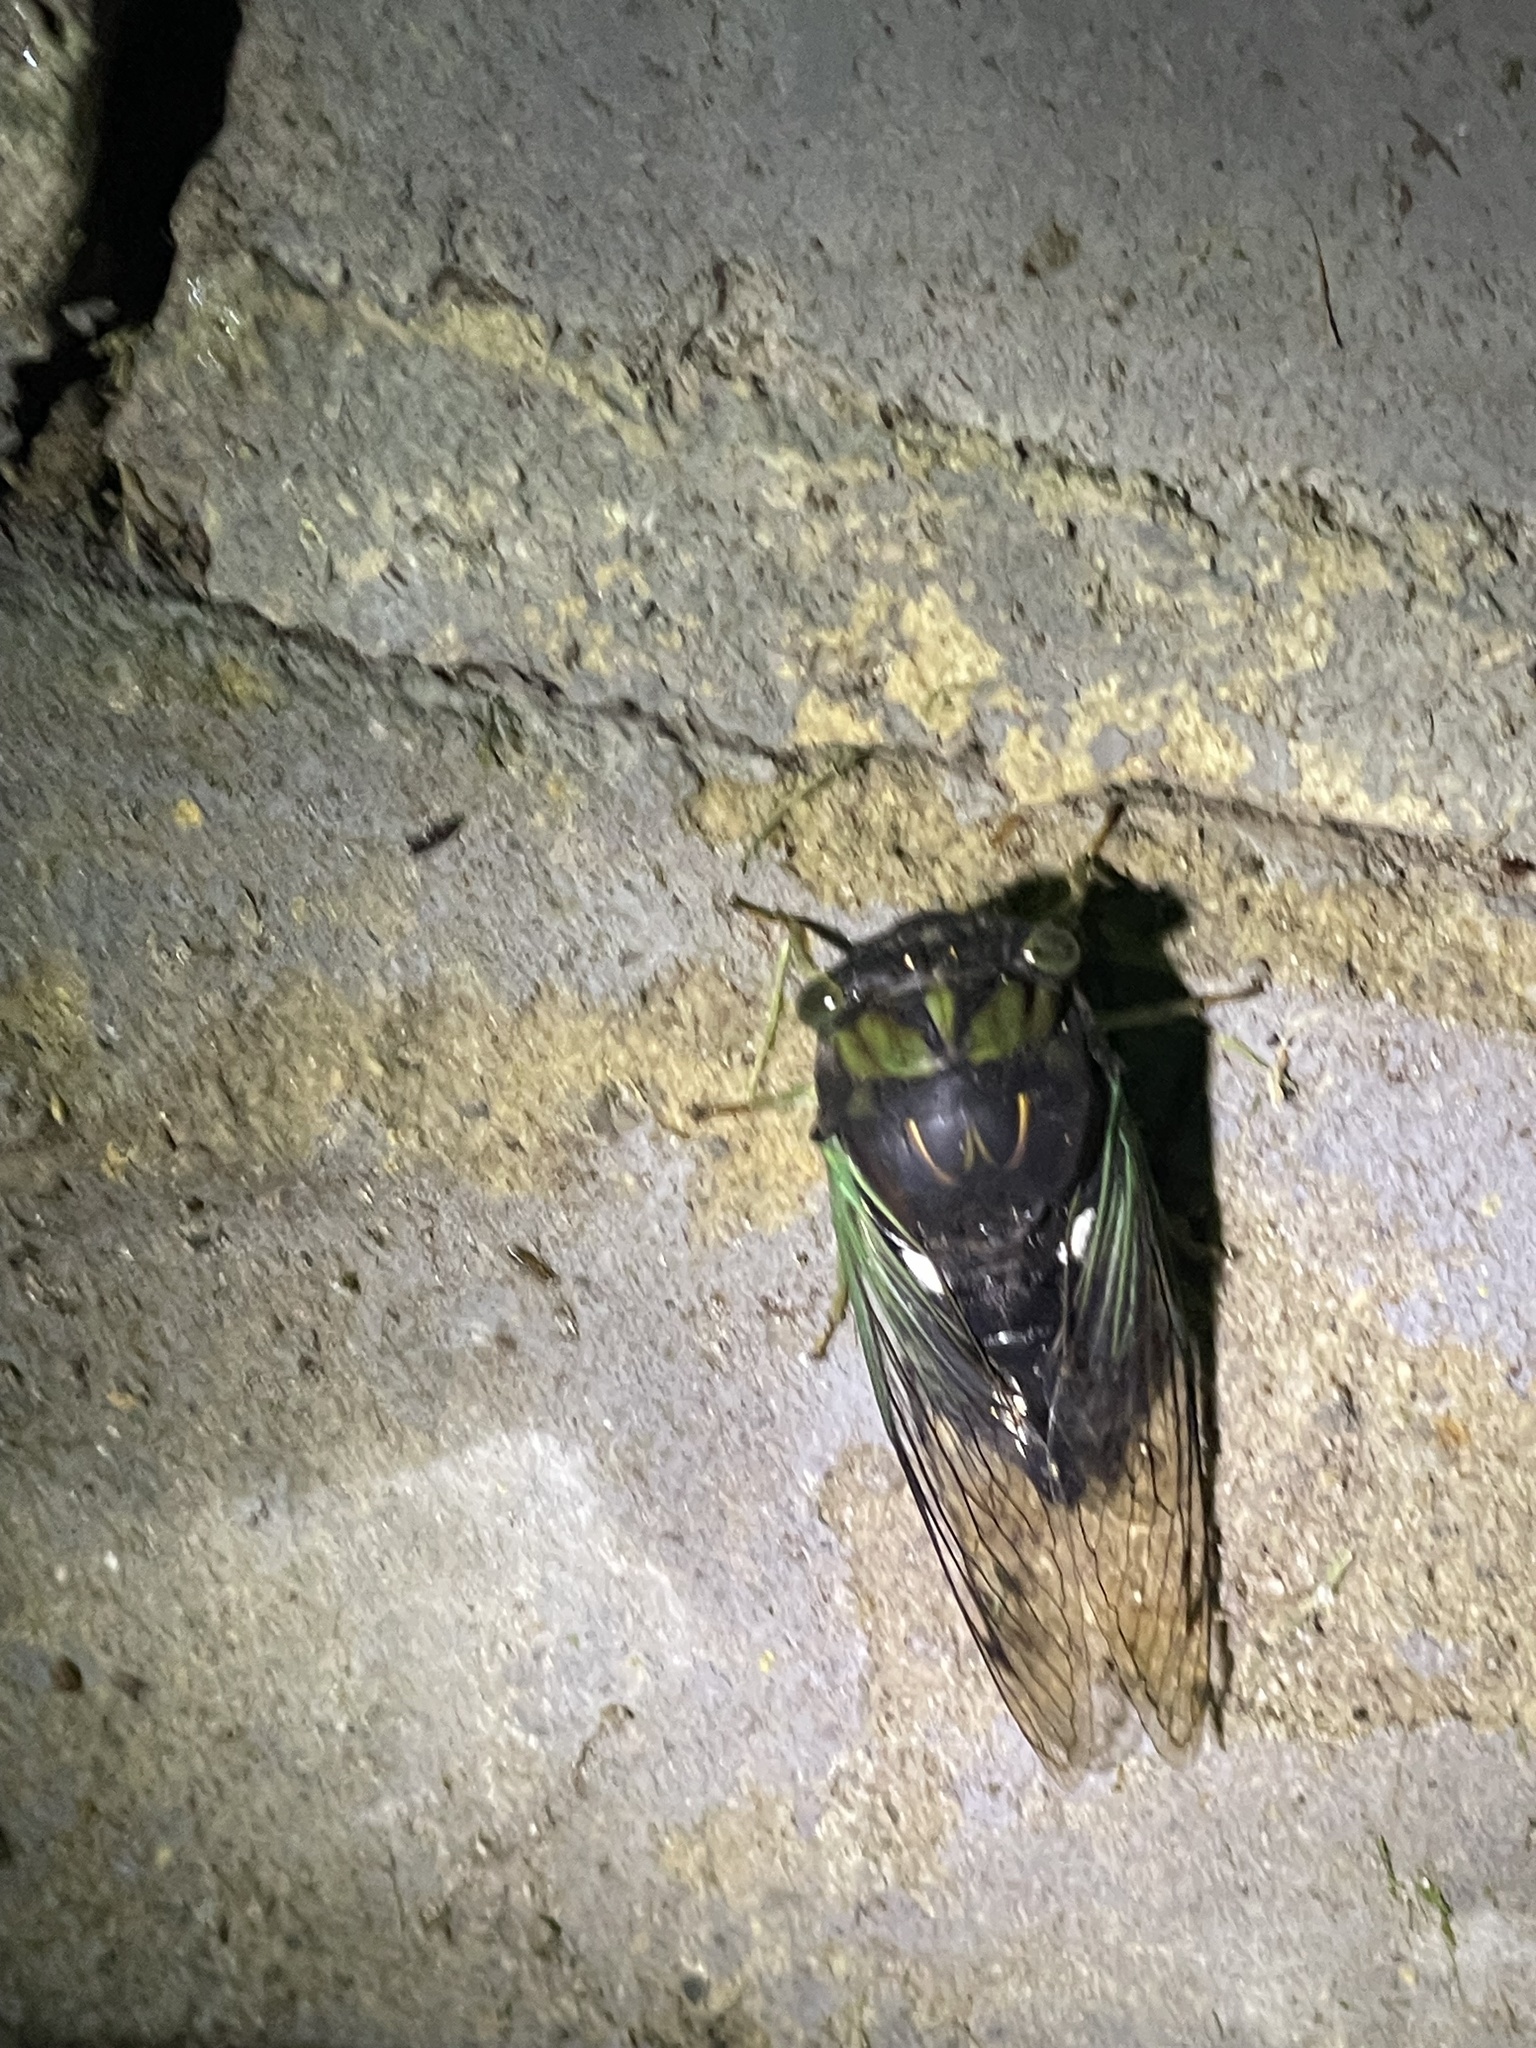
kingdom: Animalia
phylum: Arthropoda
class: Insecta
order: Hemiptera
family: Cicadidae
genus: Neotibicen
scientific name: Neotibicen tibicen
